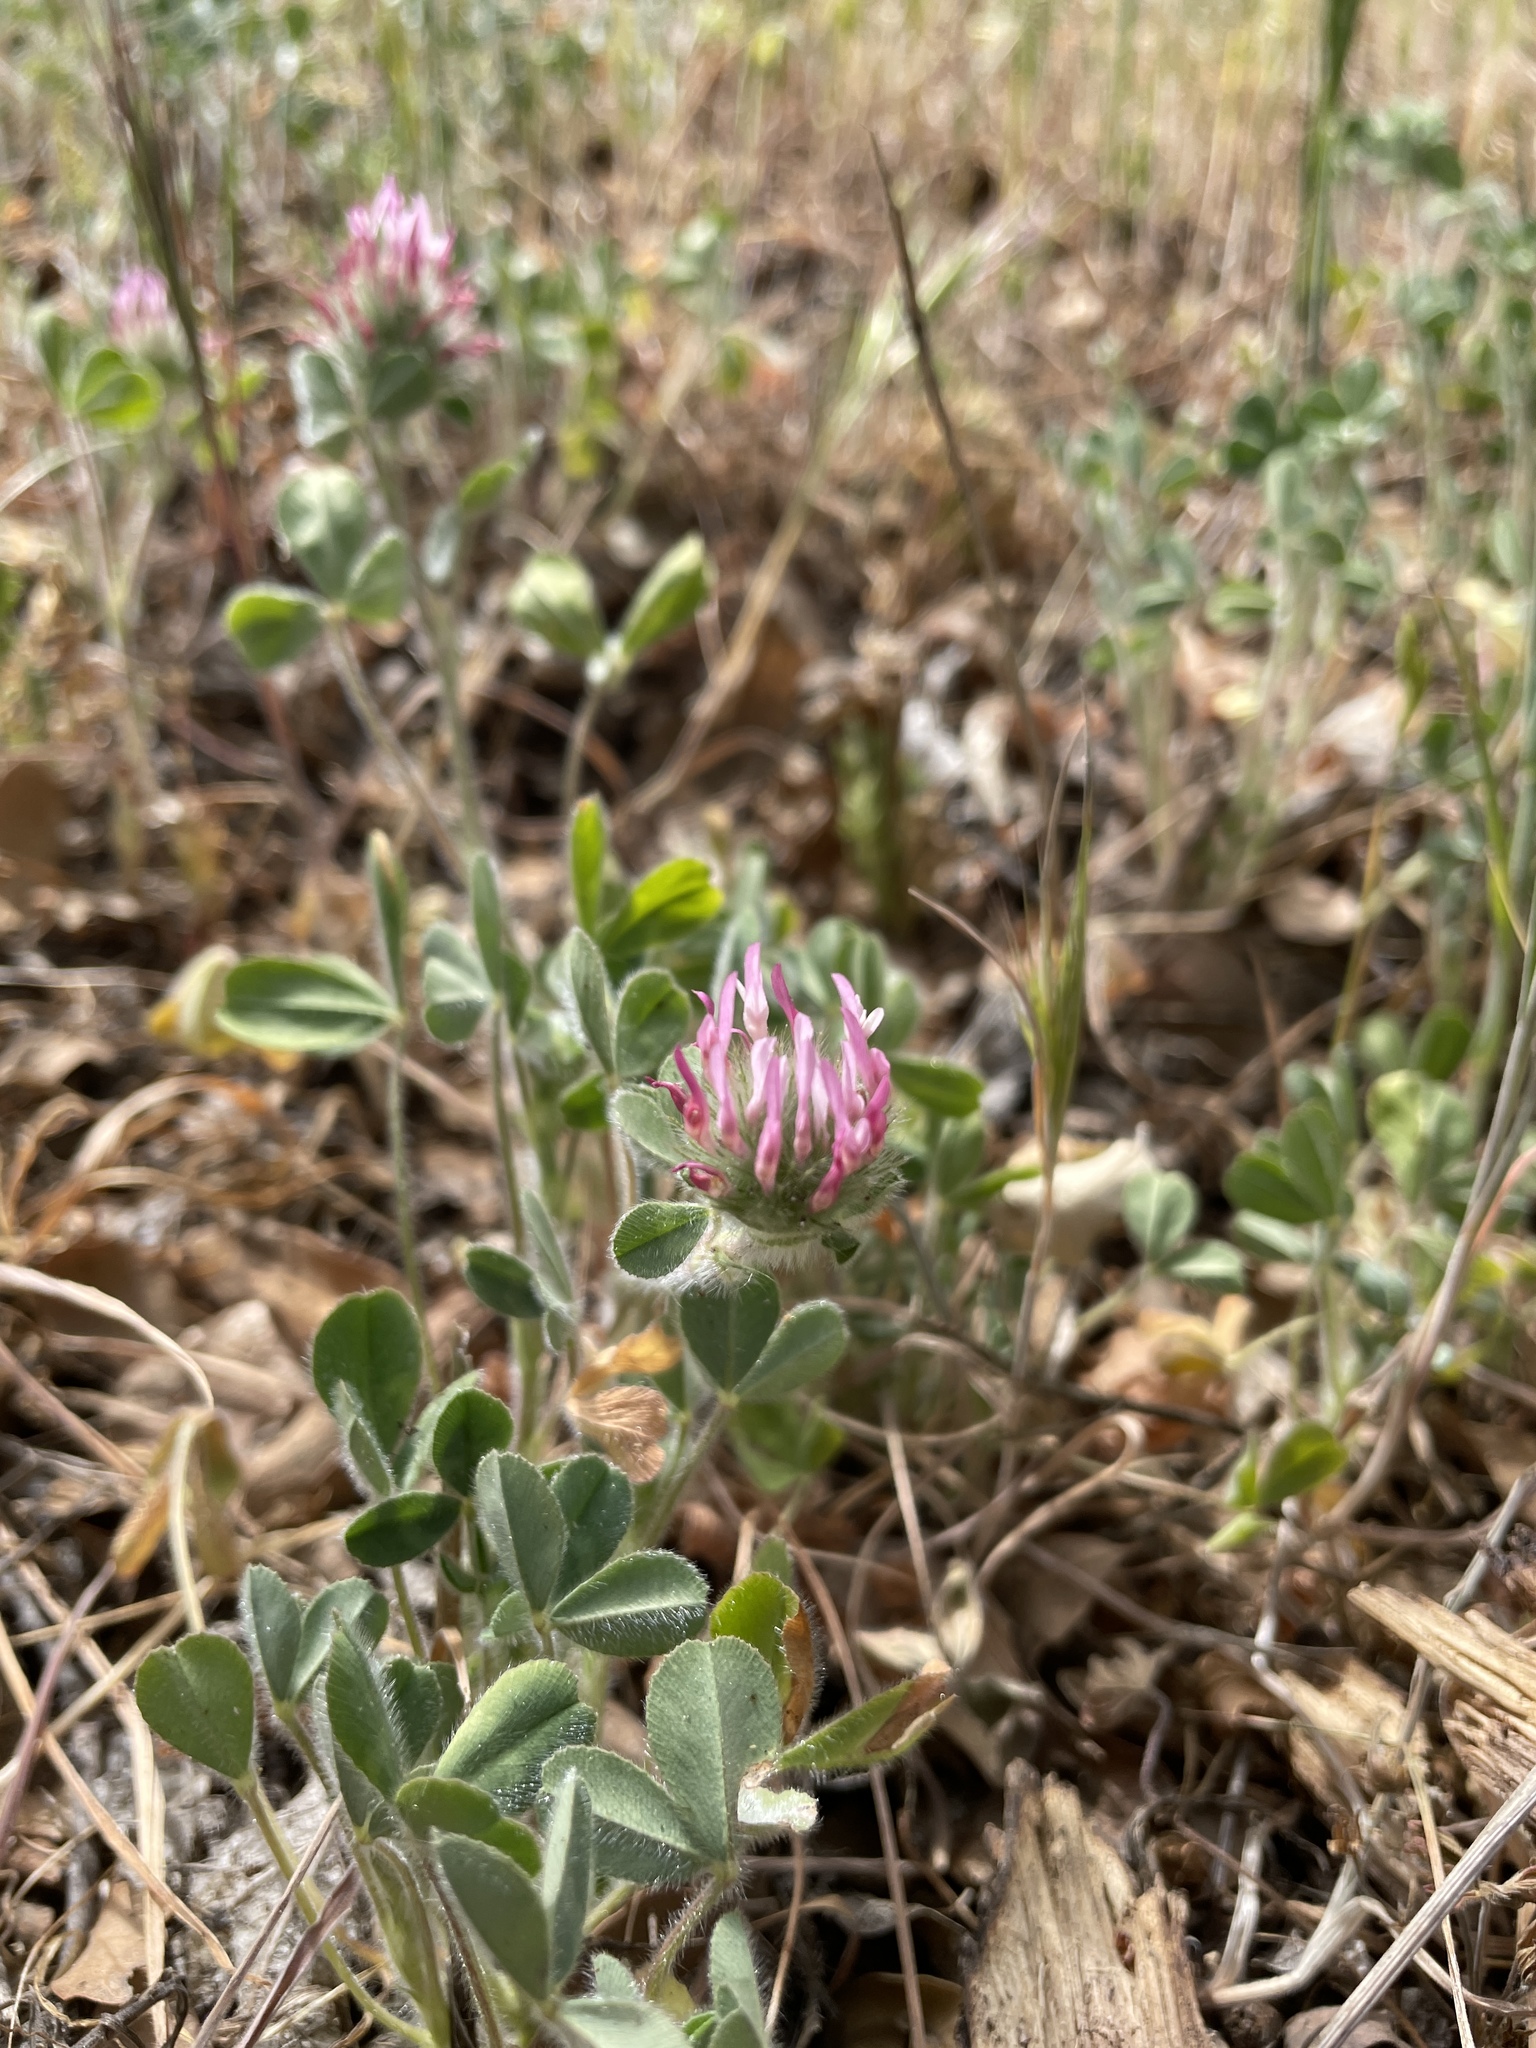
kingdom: Plantae
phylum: Tracheophyta
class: Magnoliopsida
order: Fabales
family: Fabaceae
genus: Trifolium
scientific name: Trifolium hirtum
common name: Rose clover
